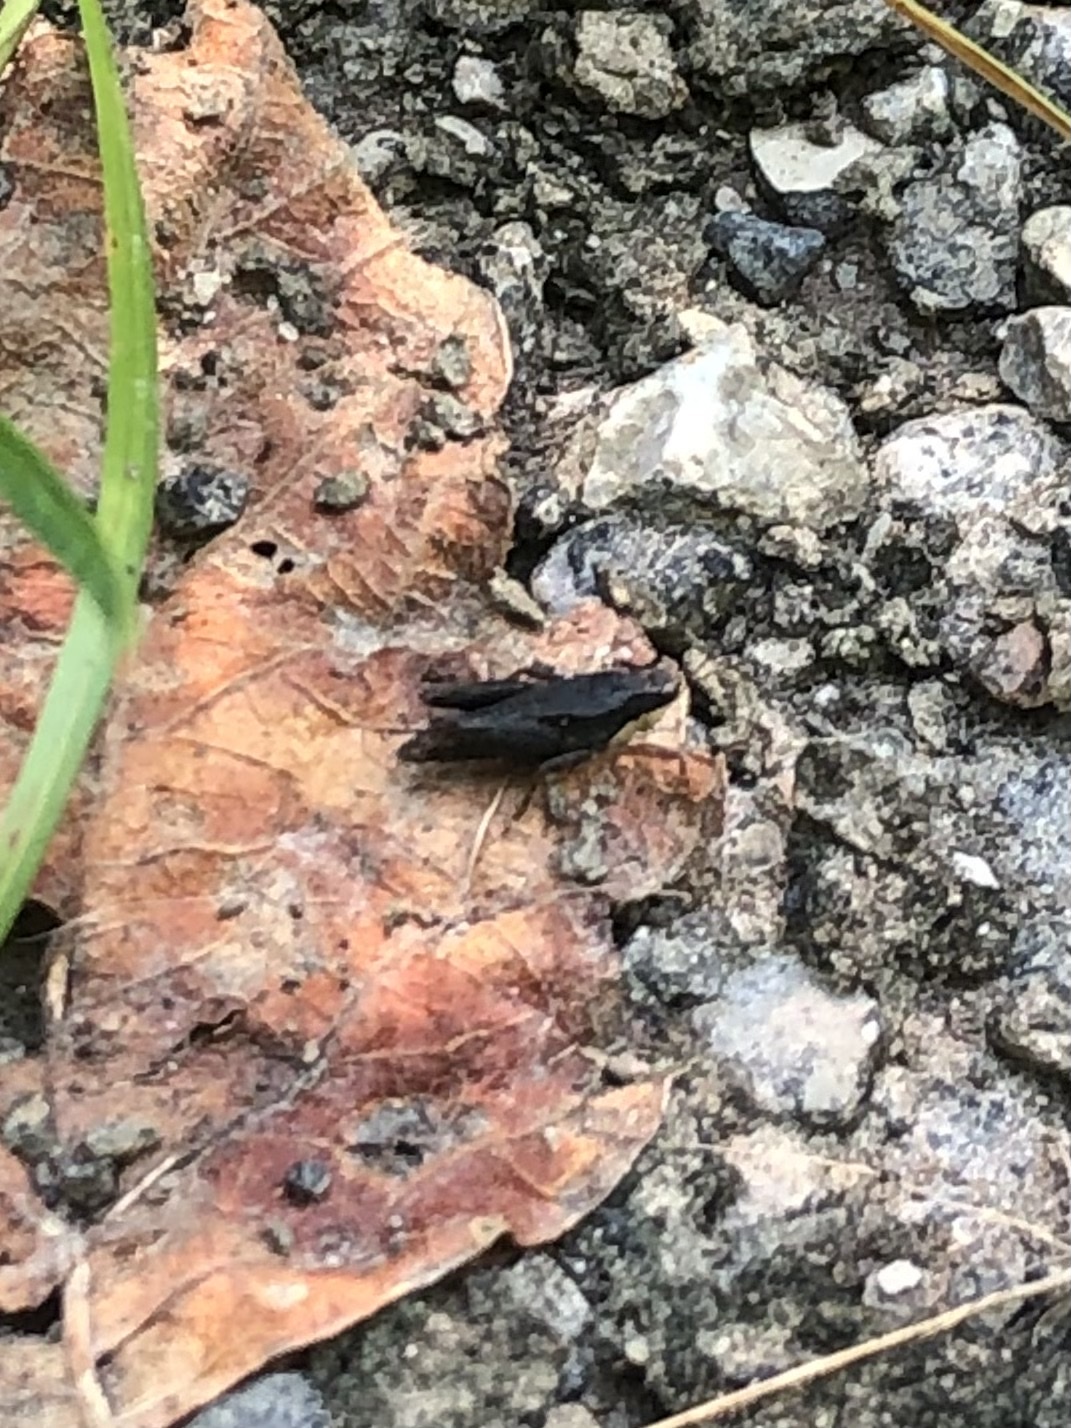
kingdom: Animalia
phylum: Arthropoda
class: Insecta
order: Orthoptera
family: Tetrigidae
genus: Tettigidea
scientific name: Tettigidea laterale
